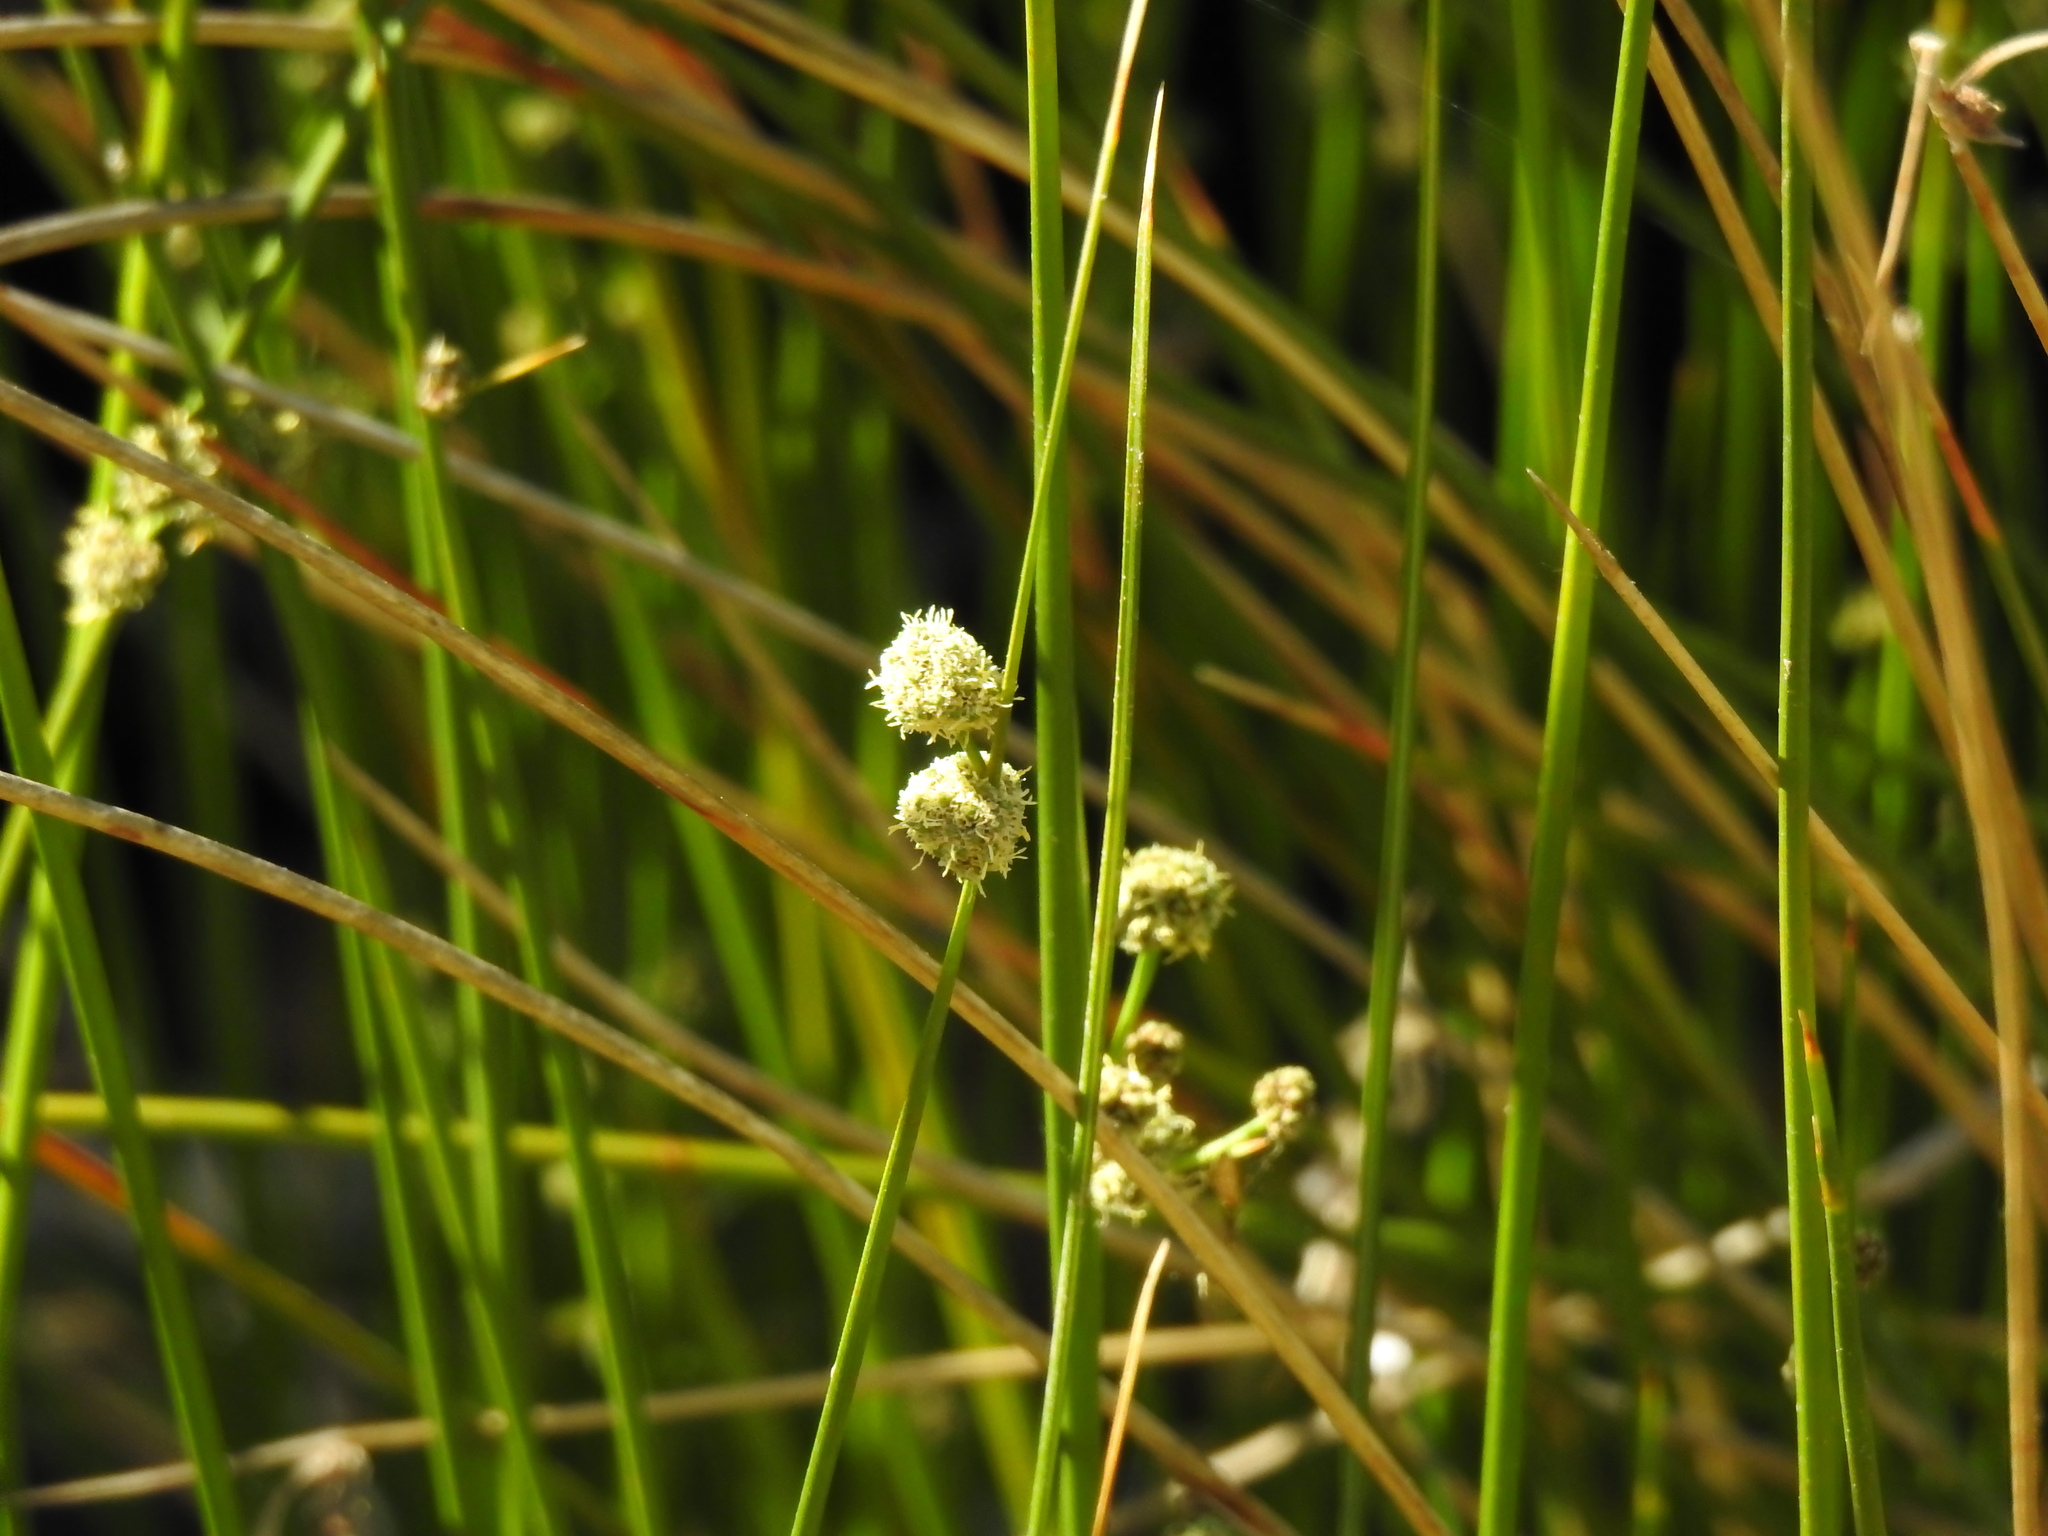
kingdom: Plantae
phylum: Tracheophyta
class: Liliopsida
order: Poales
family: Cyperaceae
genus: Scirpoides
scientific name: Scirpoides holoschoenus
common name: Round-headed club-rush
